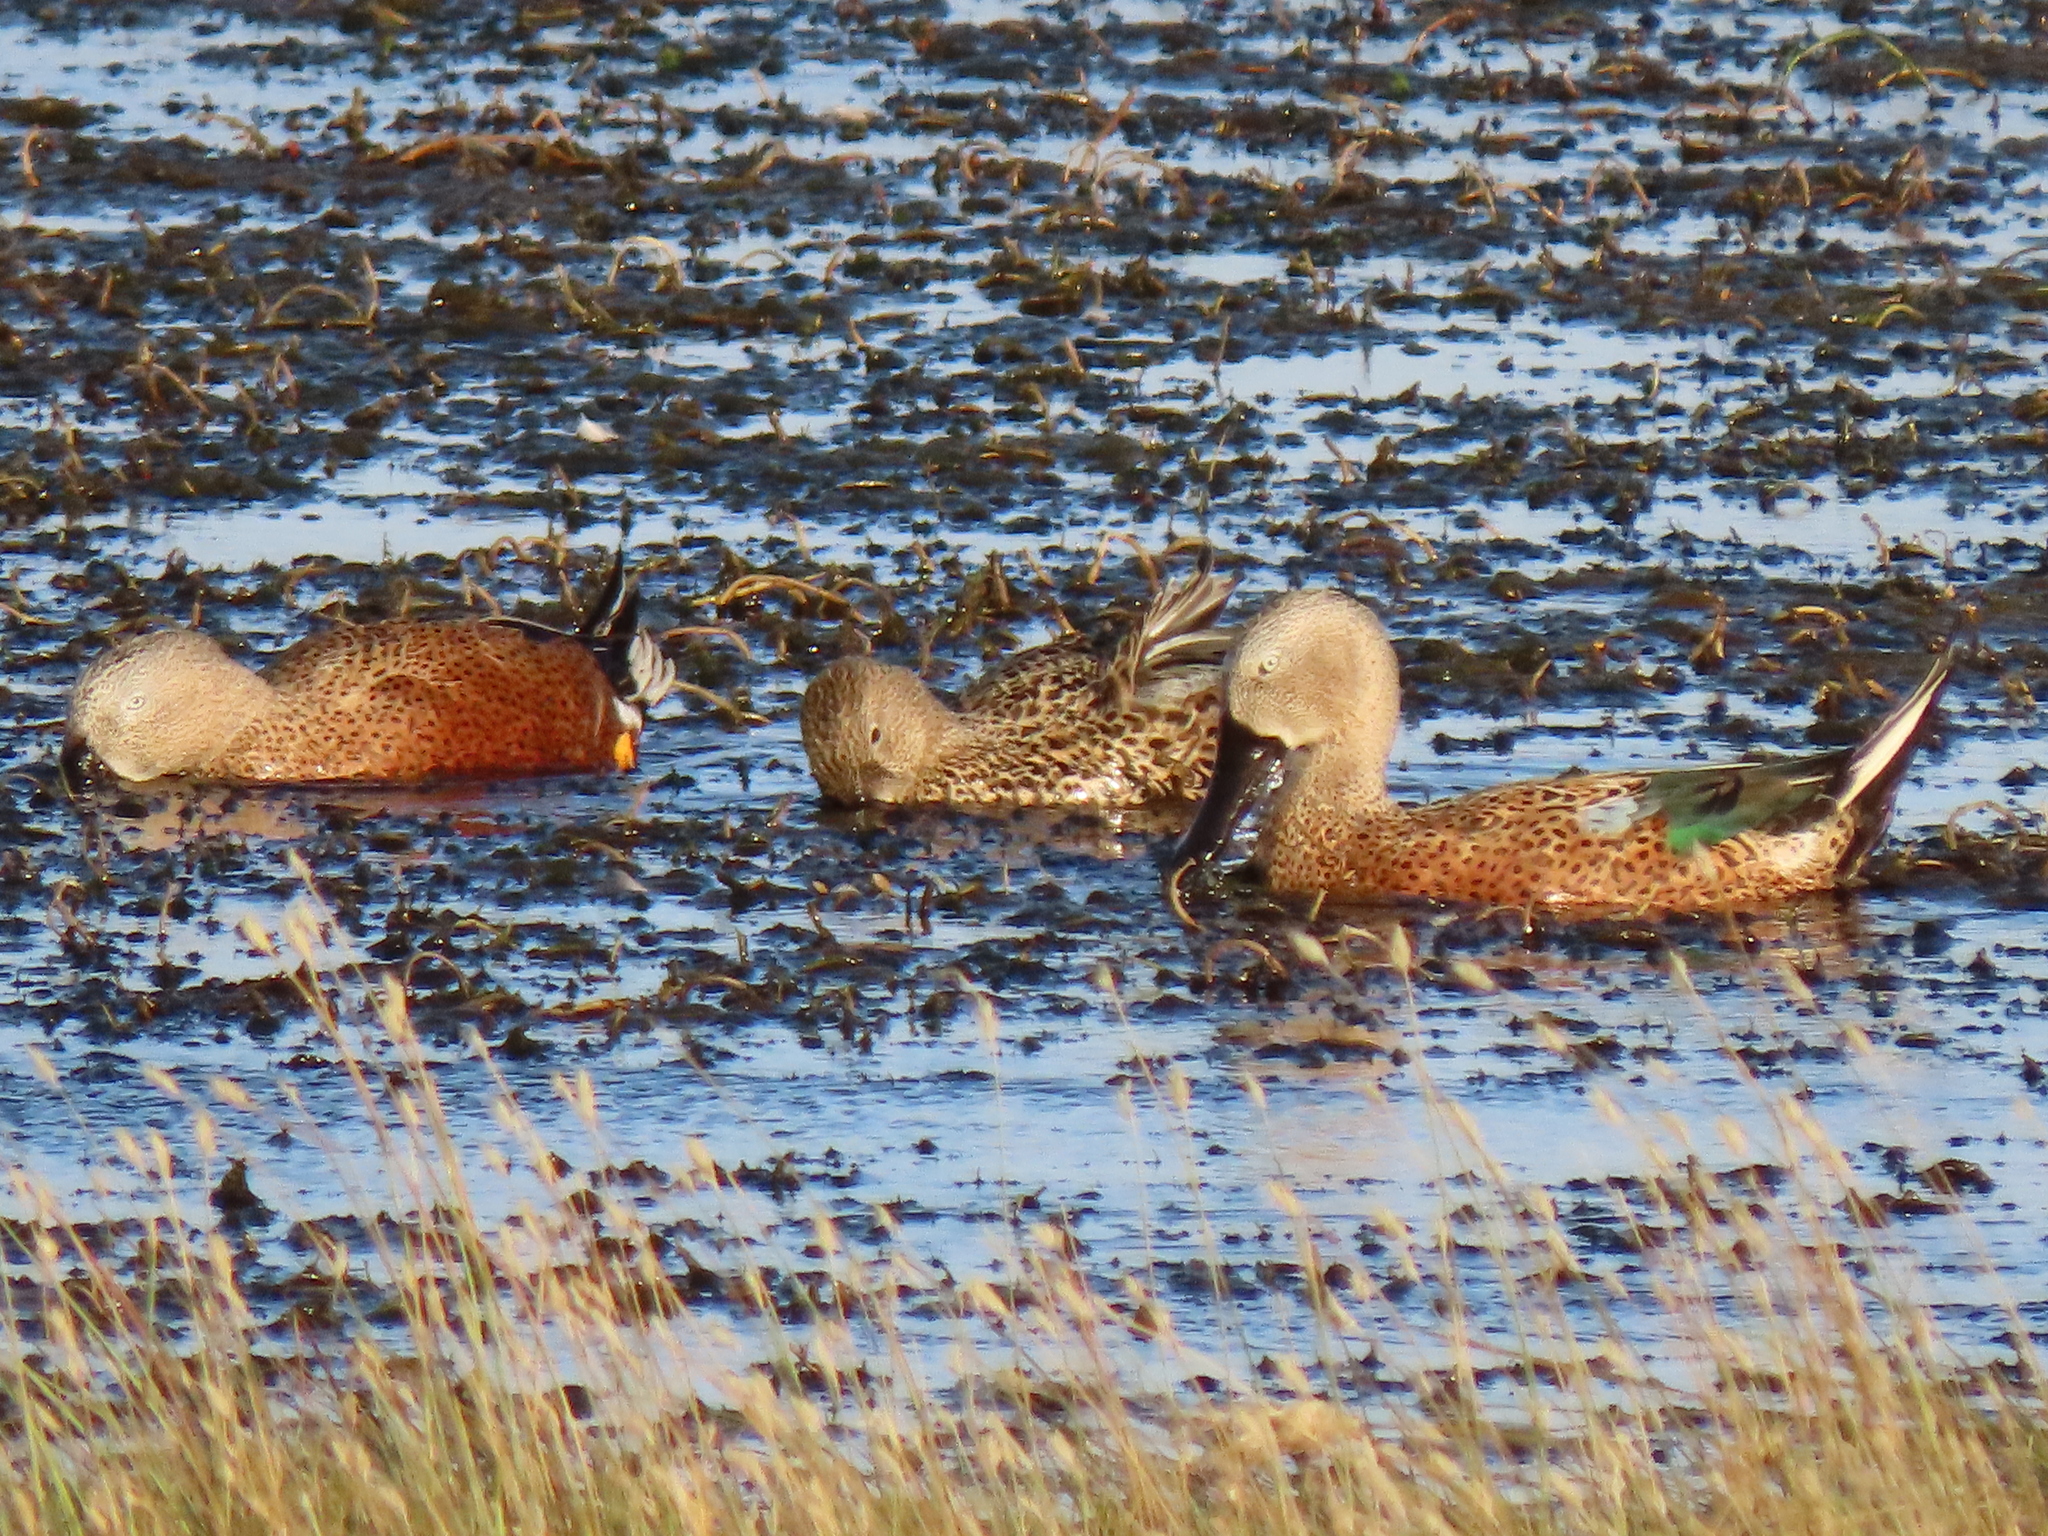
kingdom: Animalia
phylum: Chordata
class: Aves
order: Anseriformes
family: Anatidae
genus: Spatula
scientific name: Spatula platalea
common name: Red shoveler
